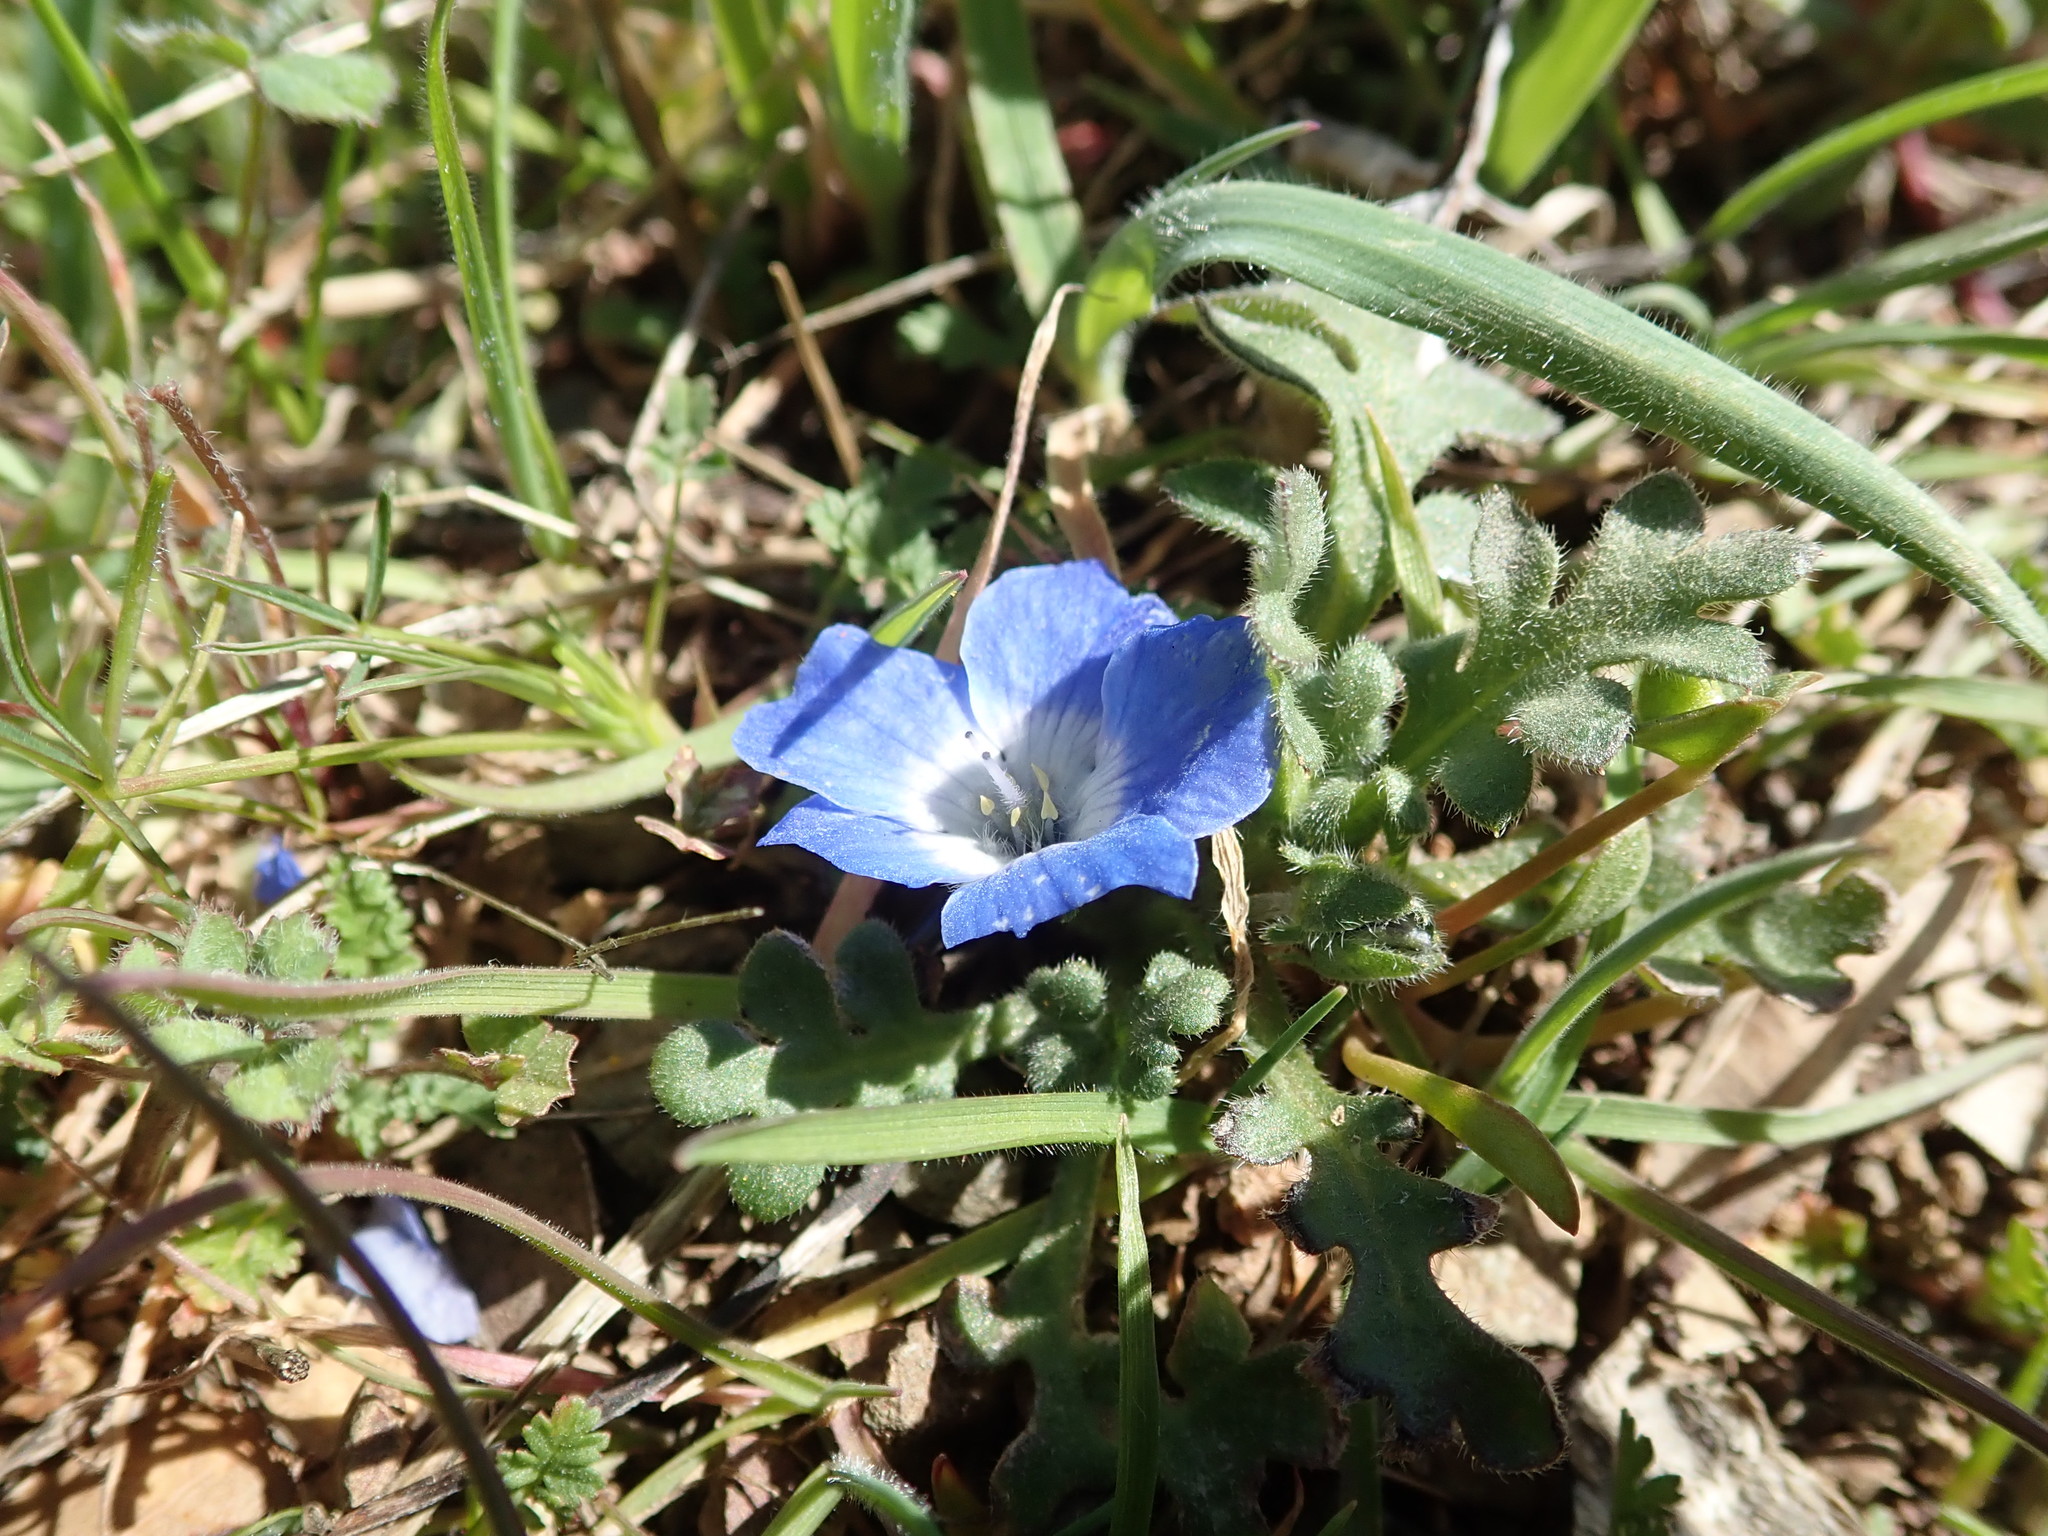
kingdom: Plantae
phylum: Tracheophyta
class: Magnoliopsida
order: Boraginales
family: Hydrophyllaceae
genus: Nemophila
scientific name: Nemophila menziesii
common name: Baby's-blue-eyes
